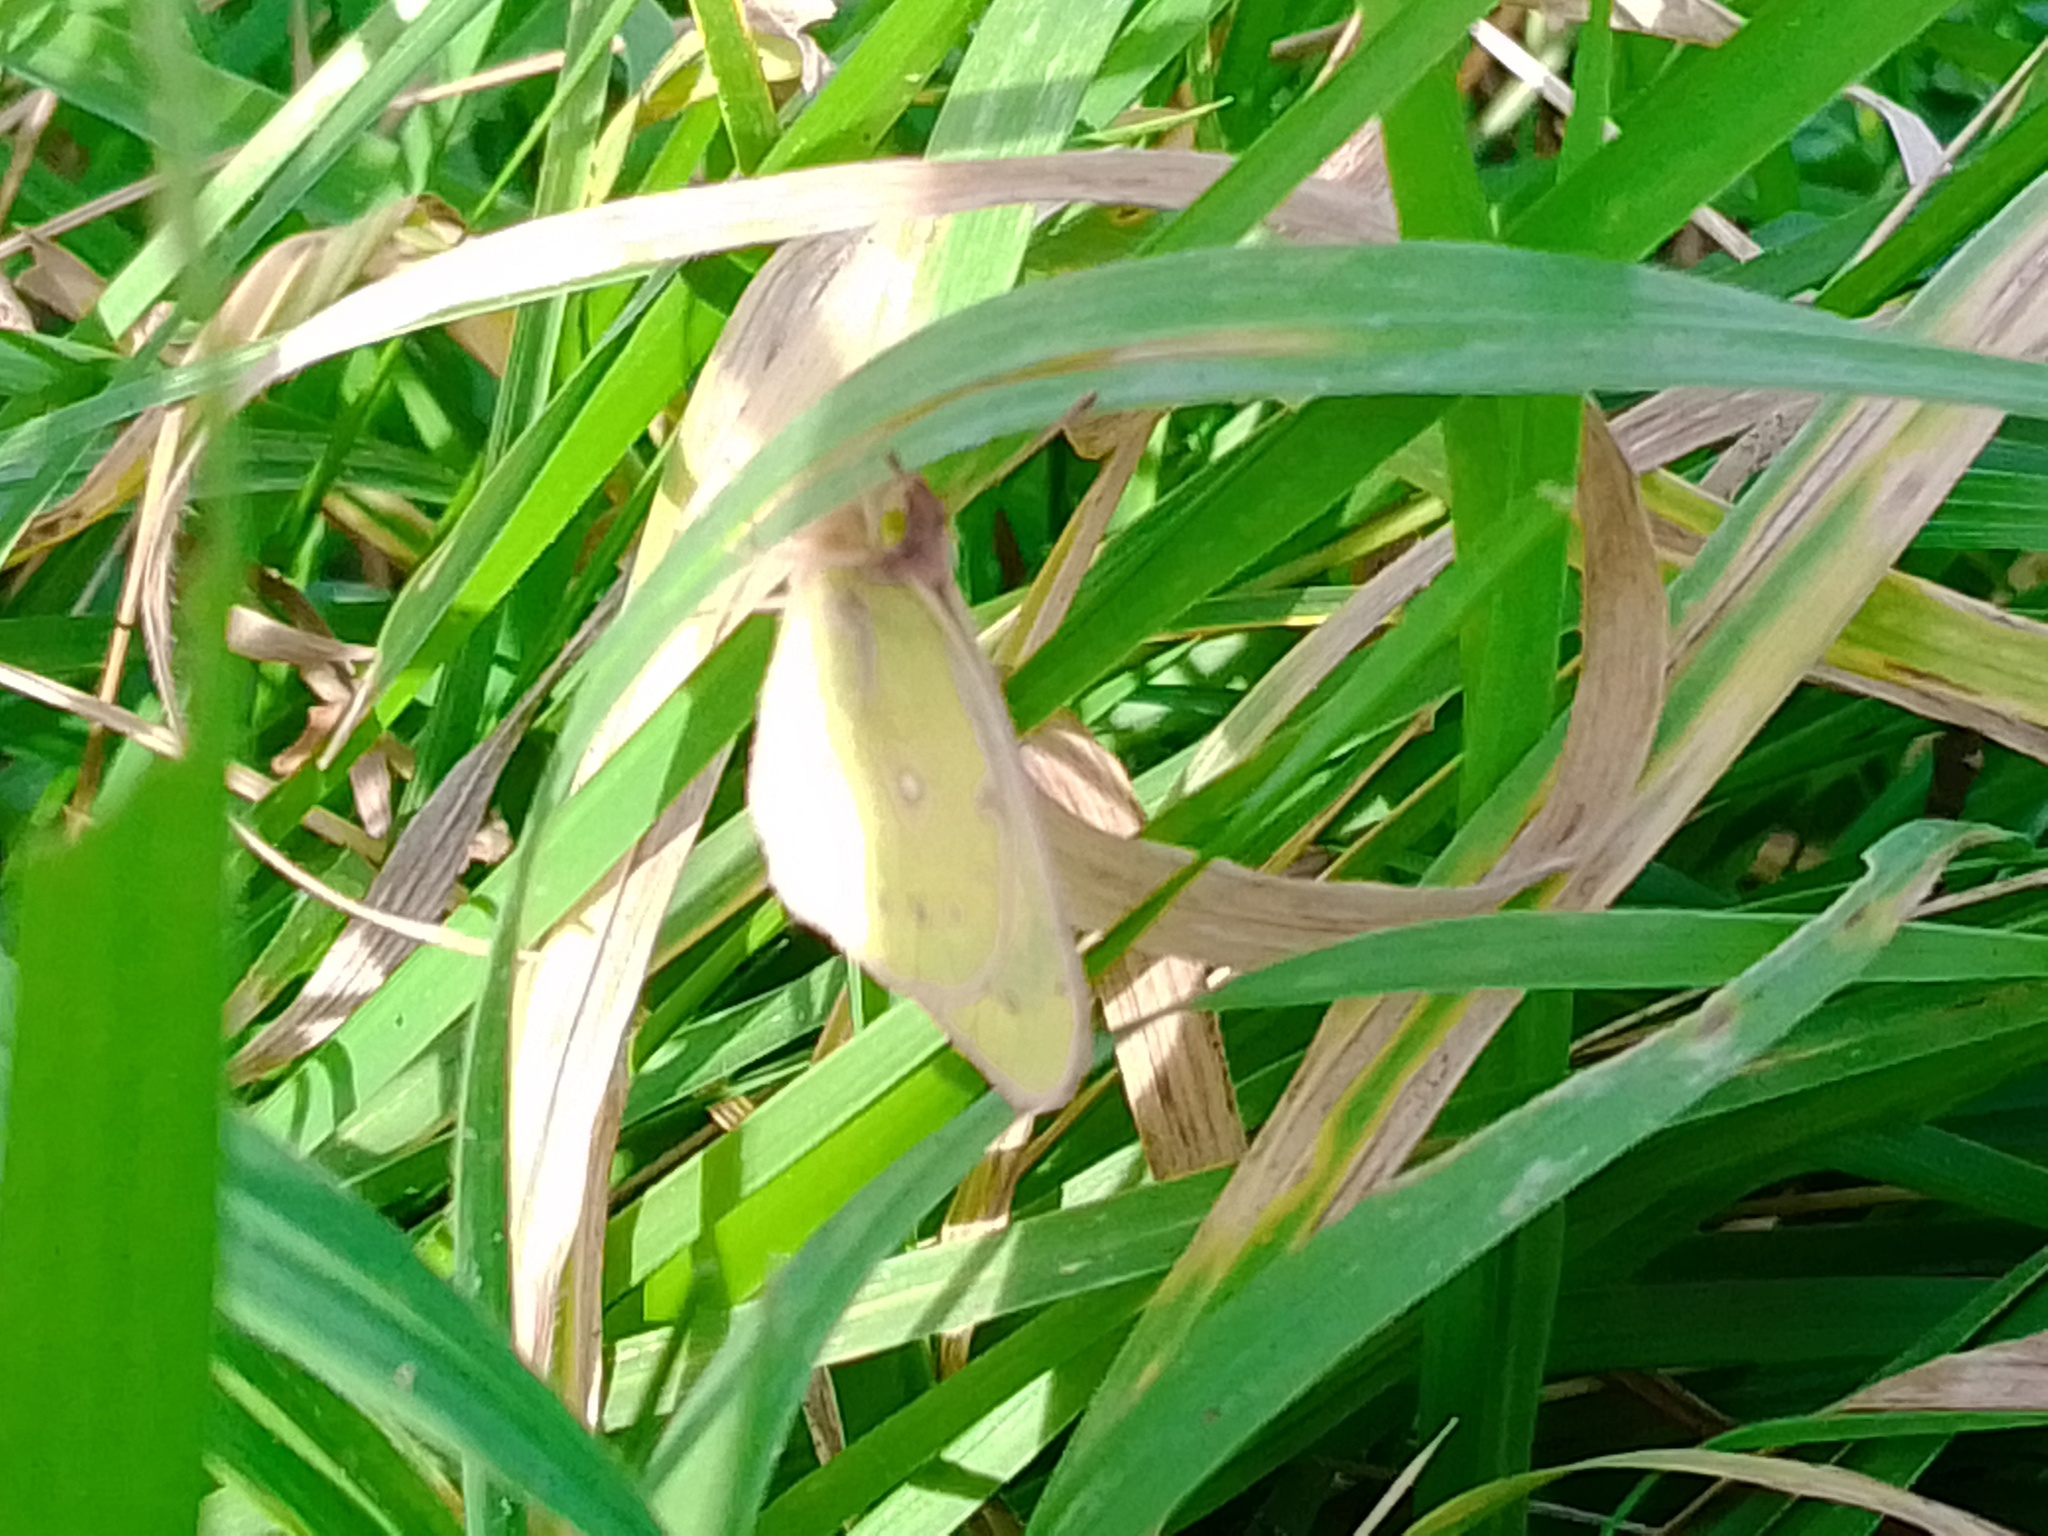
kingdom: Animalia
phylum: Arthropoda
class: Insecta
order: Lepidoptera
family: Pieridae
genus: Colias
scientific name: Colias lesbia
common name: Lesbia clouded yellow
